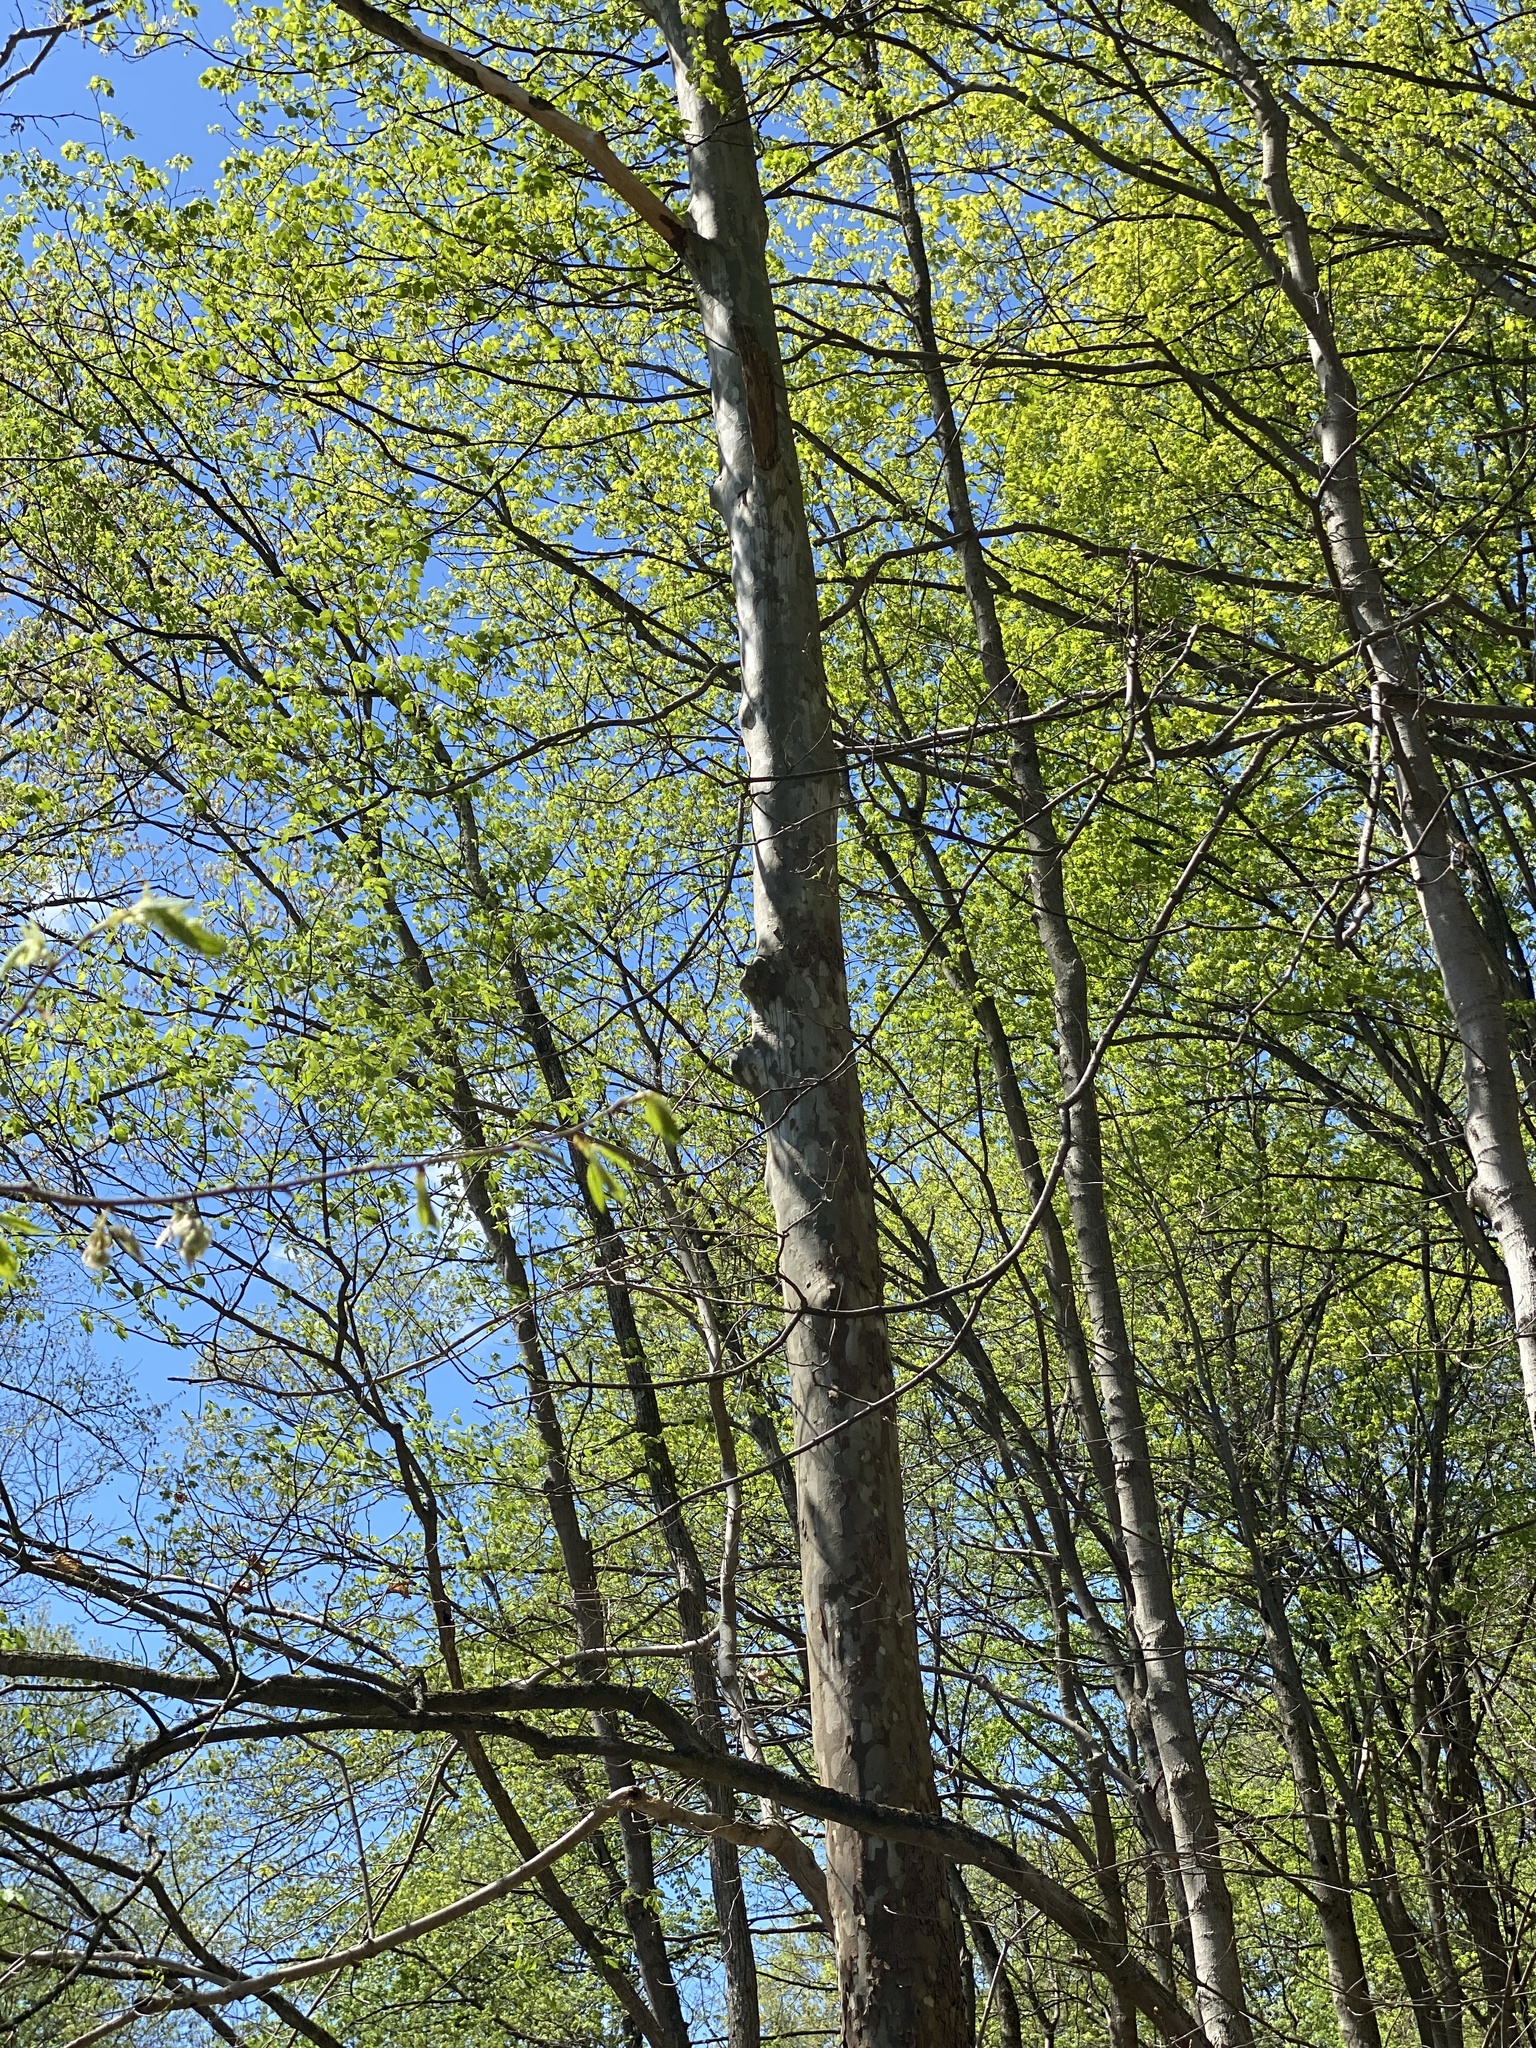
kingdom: Plantae
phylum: Tracheophyta
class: Magnoliopsida
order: Proteales
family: Platanaceae
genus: Platanus
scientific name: Platanus occidentalis
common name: American sycamore
